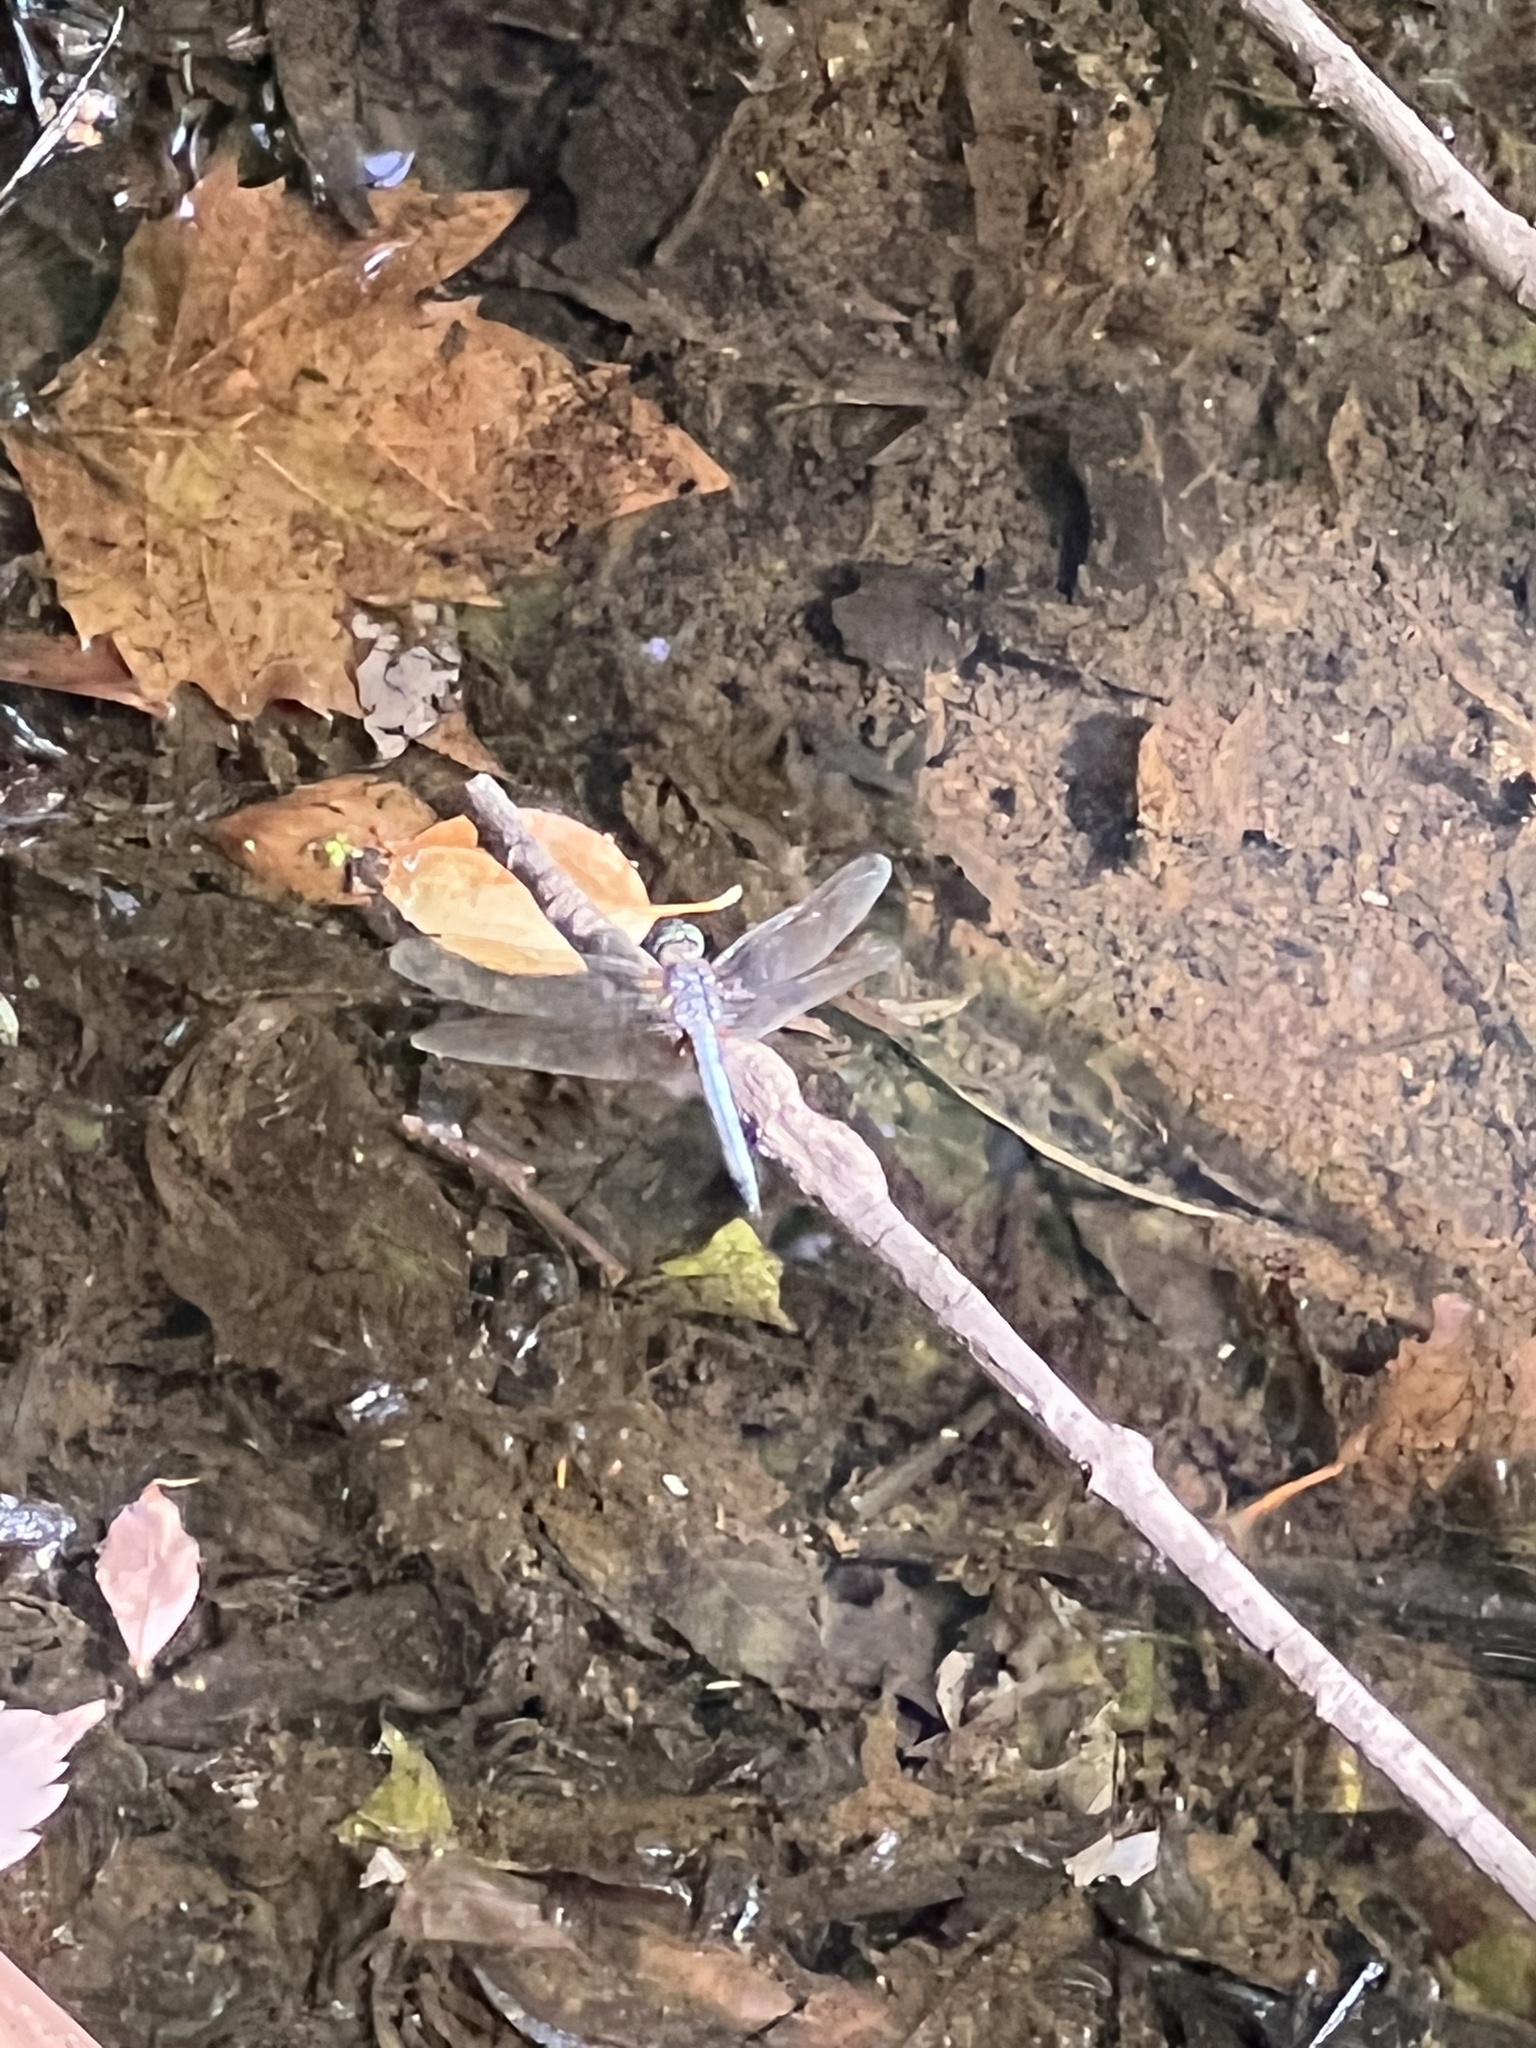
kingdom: Animalia
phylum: Arthropoda
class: Insecta
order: Odonata
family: Libellulidae
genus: Pachydiplax
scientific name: Pachydiplax longipennis
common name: Blue dasher
